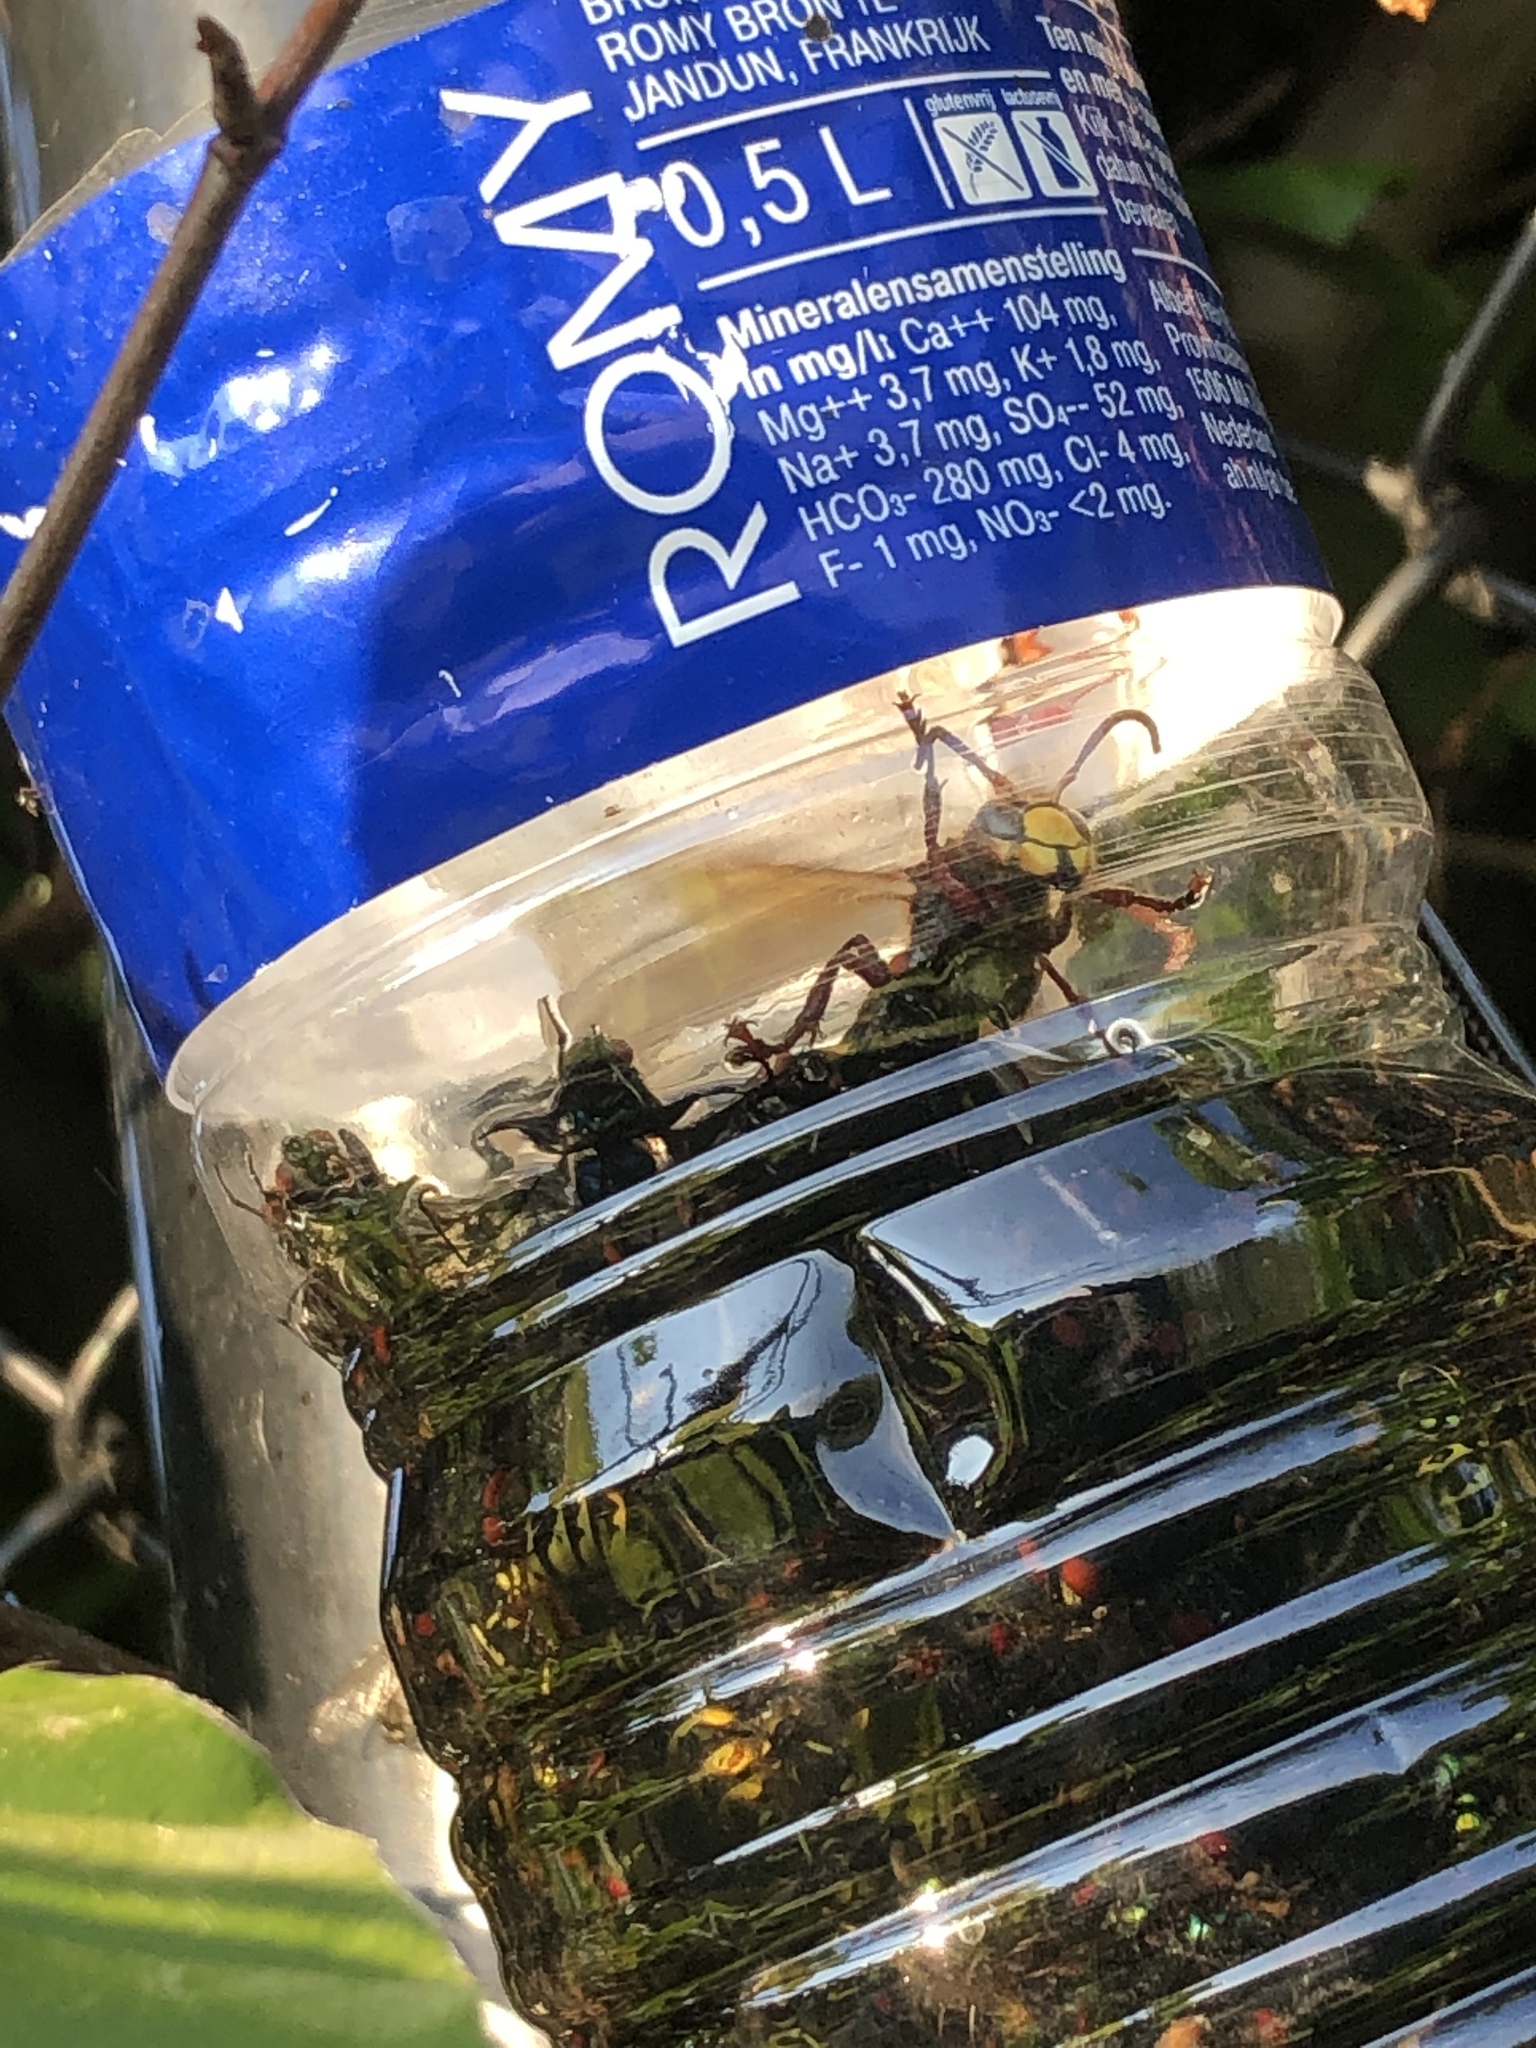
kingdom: Animalia
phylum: Arthropoda
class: Insecta
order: Hymenoptera
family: Vespidae
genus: Vespa
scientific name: Vespa crabro
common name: Hornet
